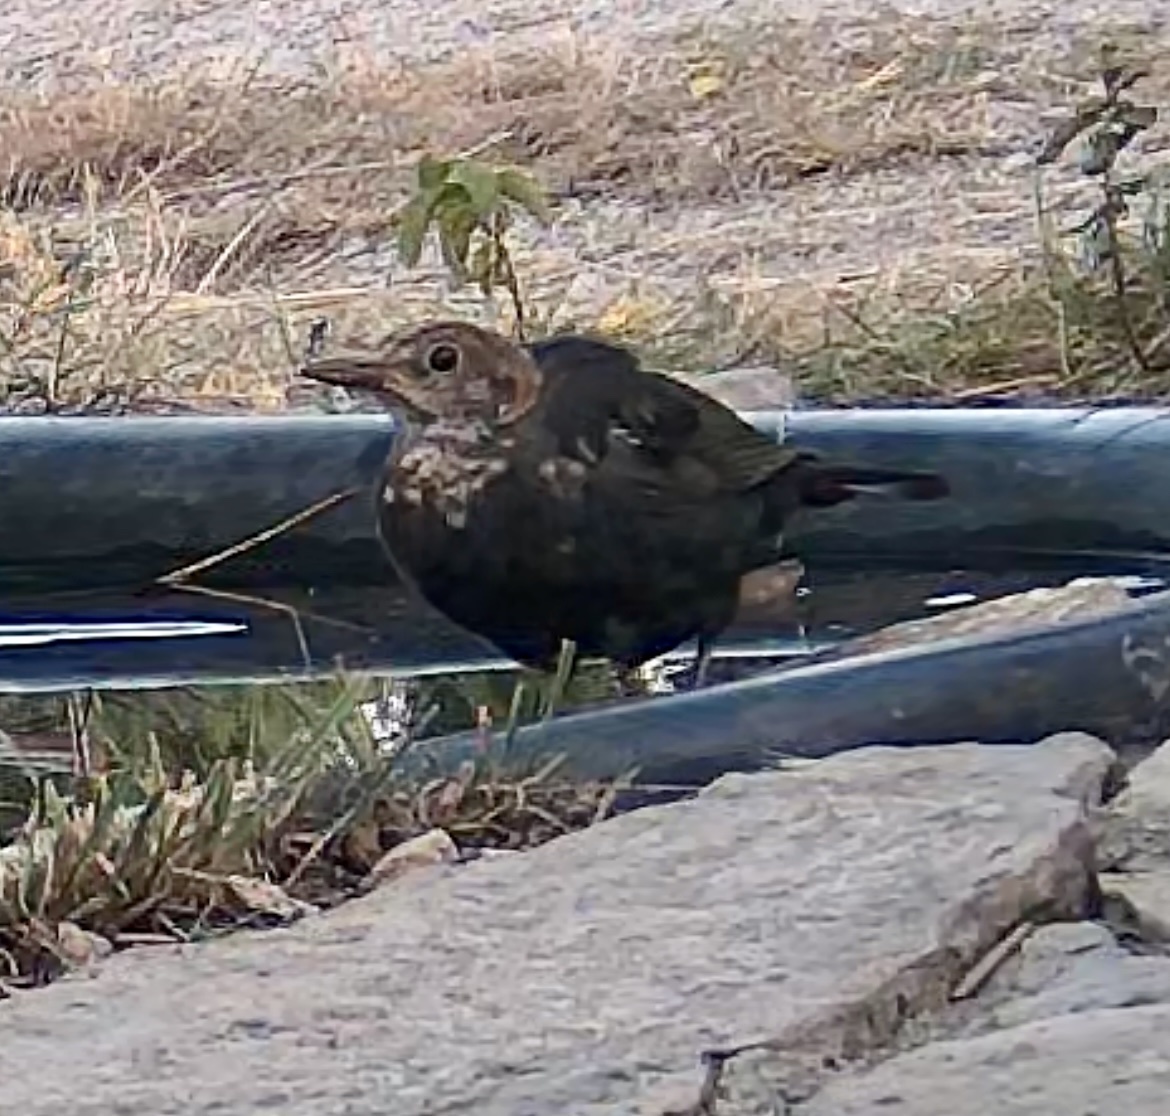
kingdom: Animalia
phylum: Chordata
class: Aves
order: Passeriformes
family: Turdidae
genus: Turdus
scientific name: Turdus merula
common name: Common blackbird
